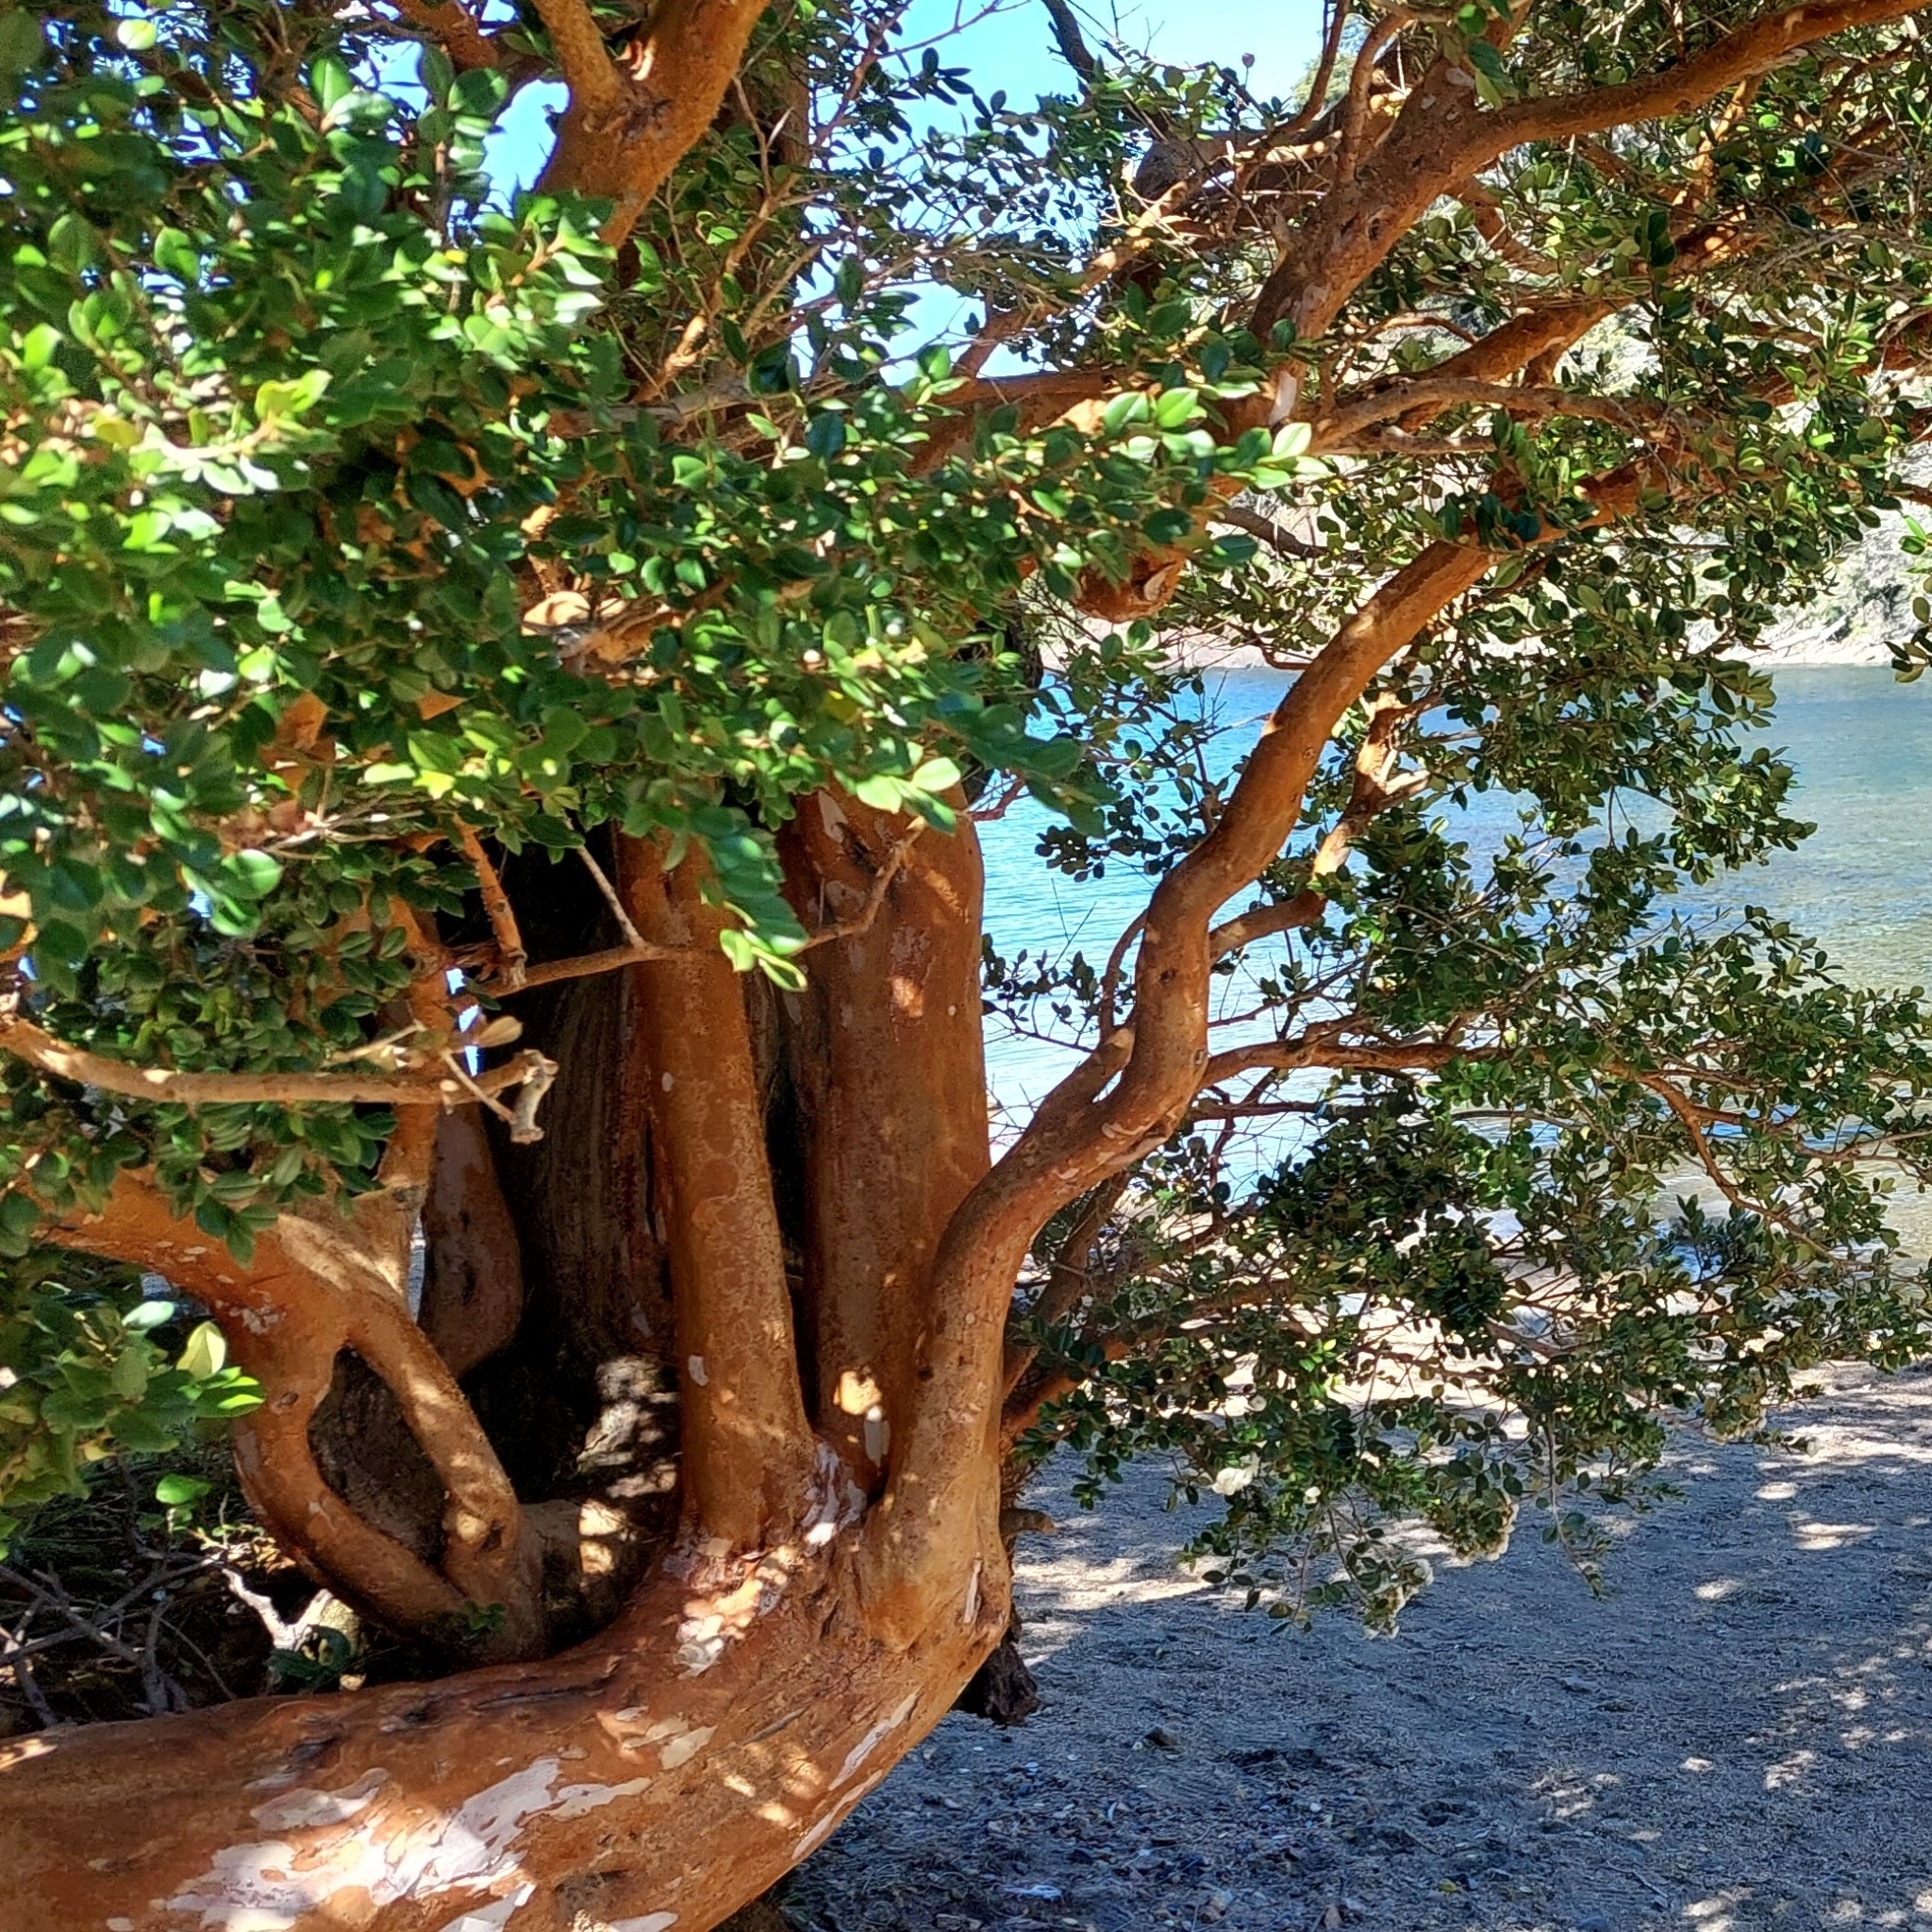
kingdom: Plantae
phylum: Tracheophyta
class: Magnoliopsida
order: Myrtales
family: Myrtaceae
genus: Luma
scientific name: Luma apiculata
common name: Chilean myrtle
